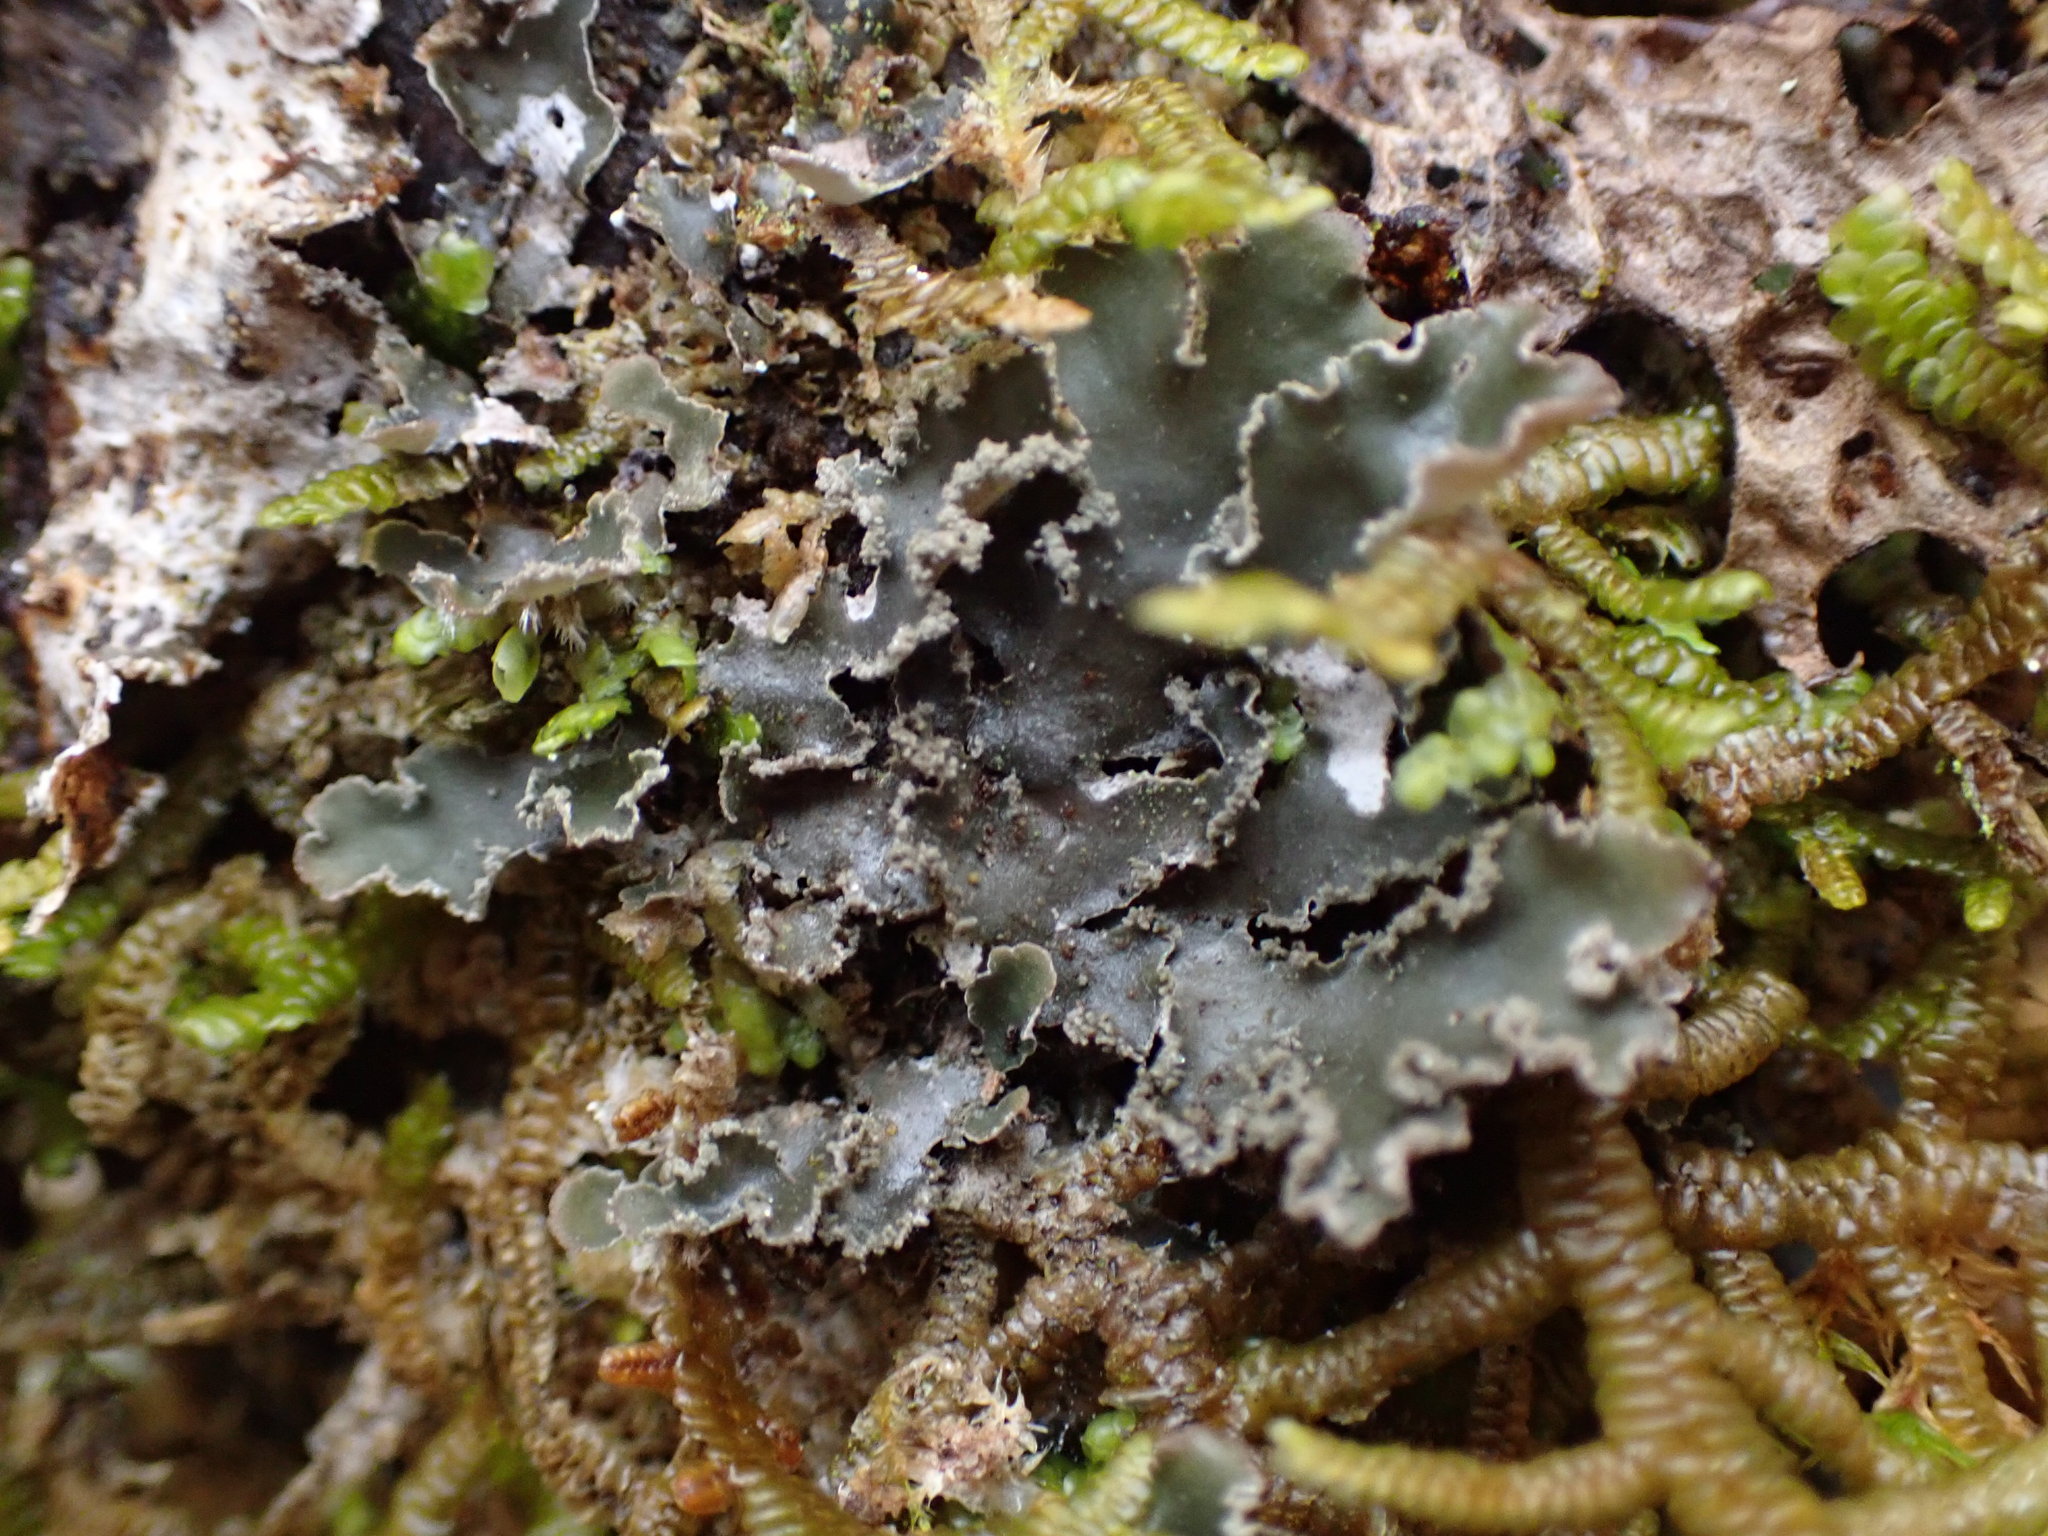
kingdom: Fungi
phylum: Ascomycota
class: Lecanoromycetes
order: Peltigerales
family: Peltigeraceae
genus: Peltigera
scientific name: Peltigera collina
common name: Gritty tree pelt lichen
